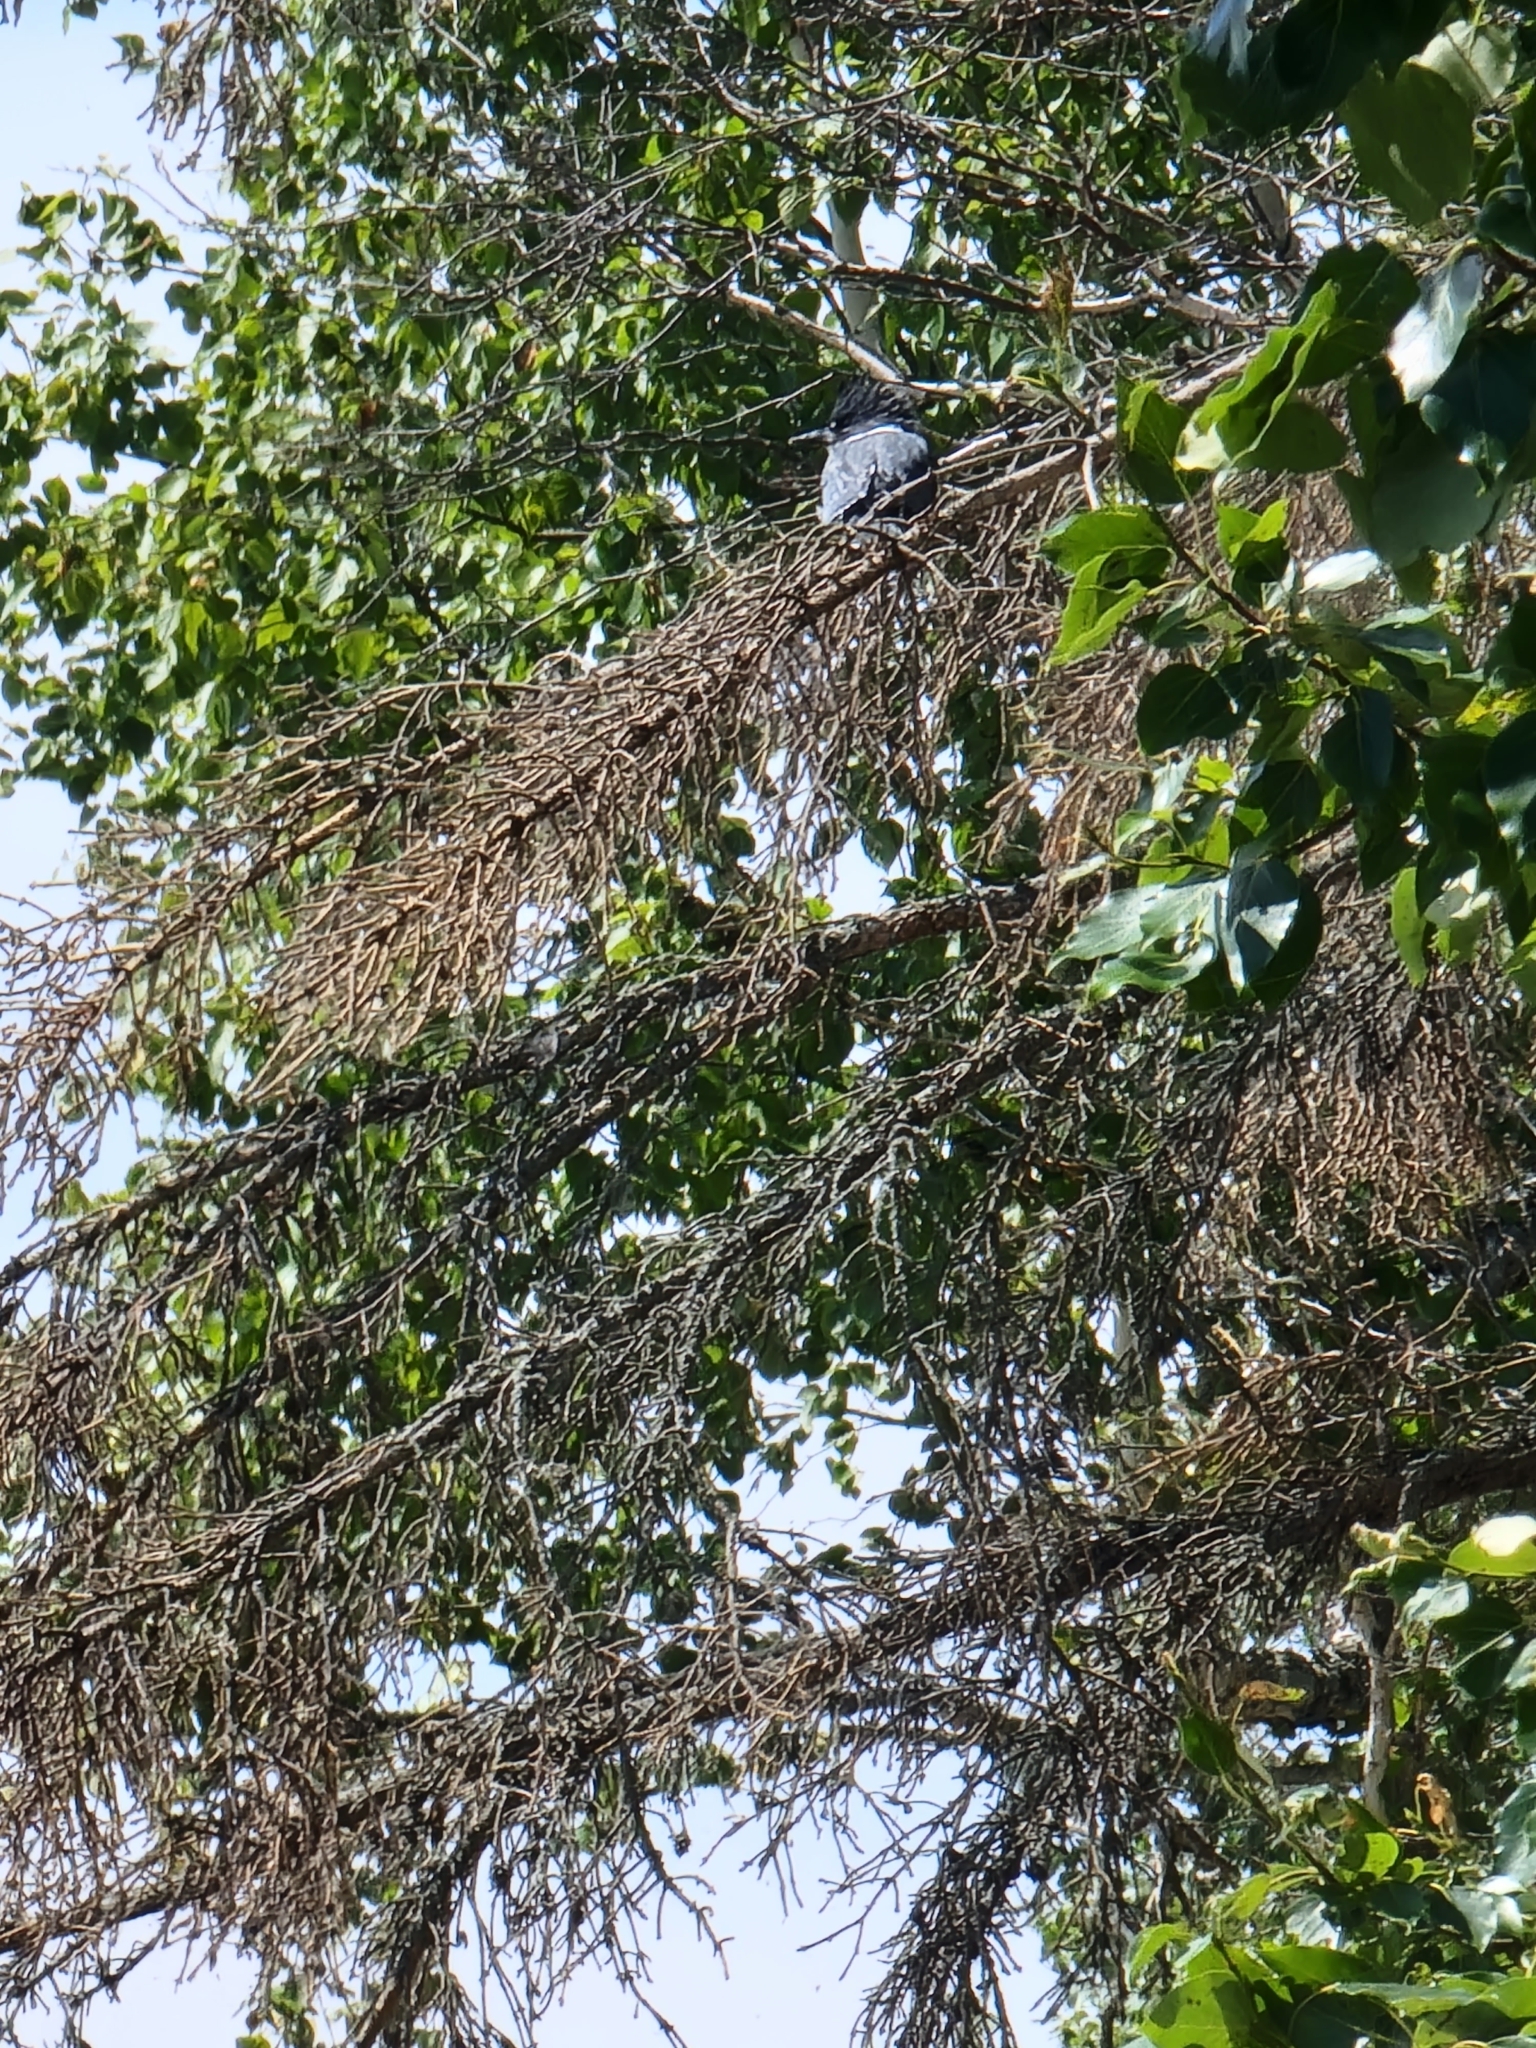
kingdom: Animalia
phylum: Chordata
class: Aves
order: Coraciiformes
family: Alcedinidae
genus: Megaceryle
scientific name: Megaceryle alcyon
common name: Belted kingfisher
